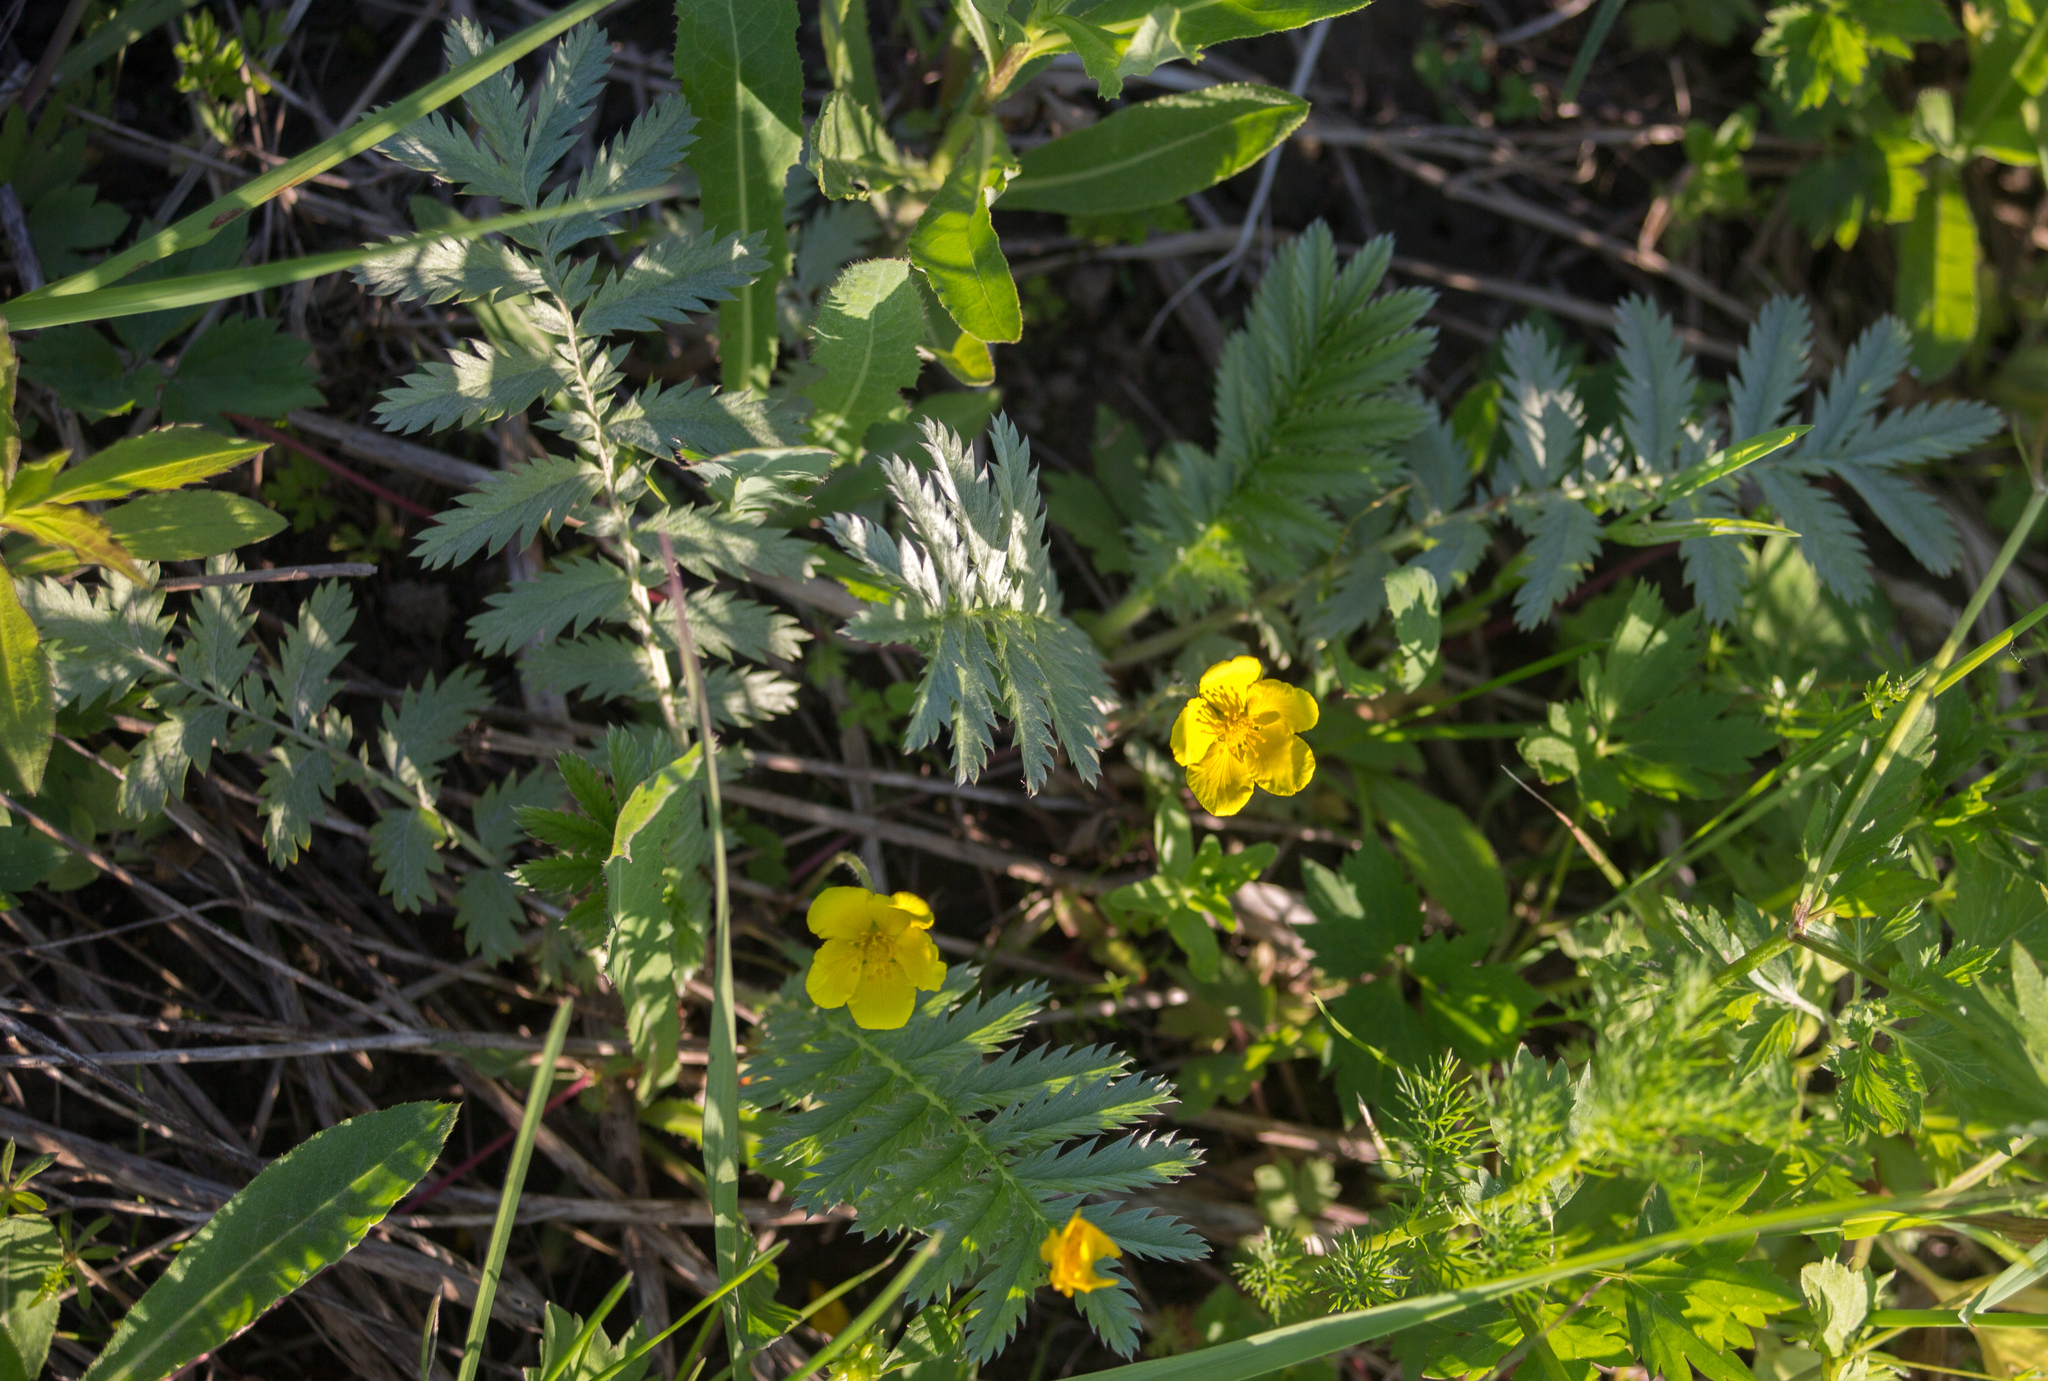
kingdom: Plantae
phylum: Tracheophyta
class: Magnoliopsida
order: Rosales
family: Rosaceae
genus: Argentina
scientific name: Argentina anserina
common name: Common silverweed
